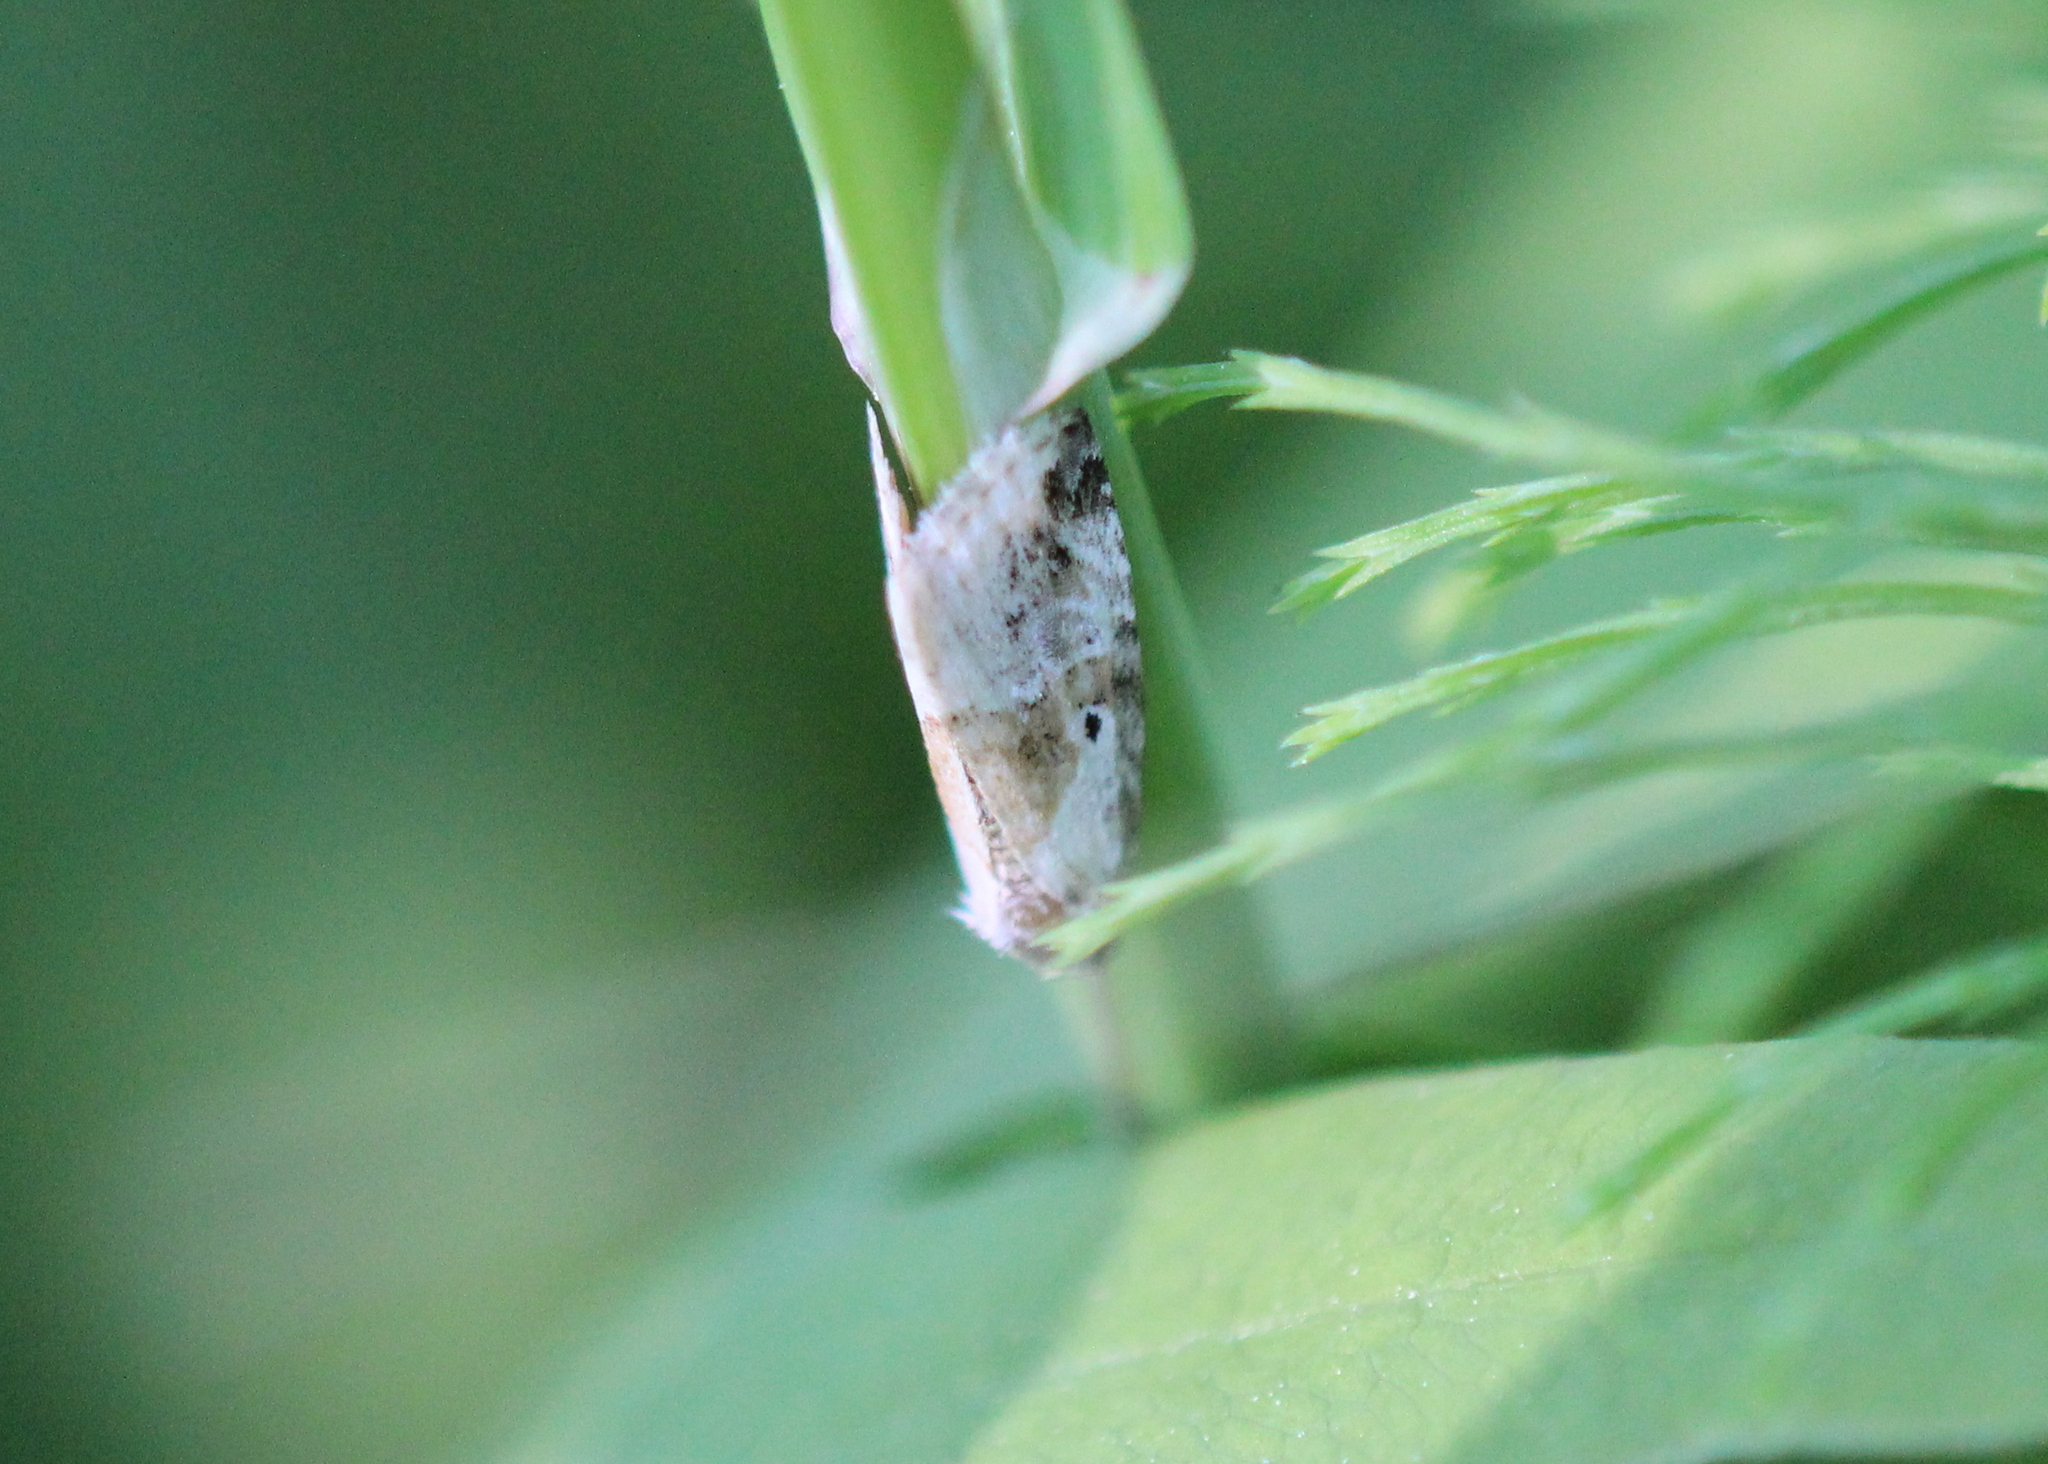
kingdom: Animalia
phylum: Arthropoda
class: Insecta
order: Lepidoptera
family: Noctuidae
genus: Maliattha
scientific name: Maliattha synochitis
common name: Black-dotted glyph
